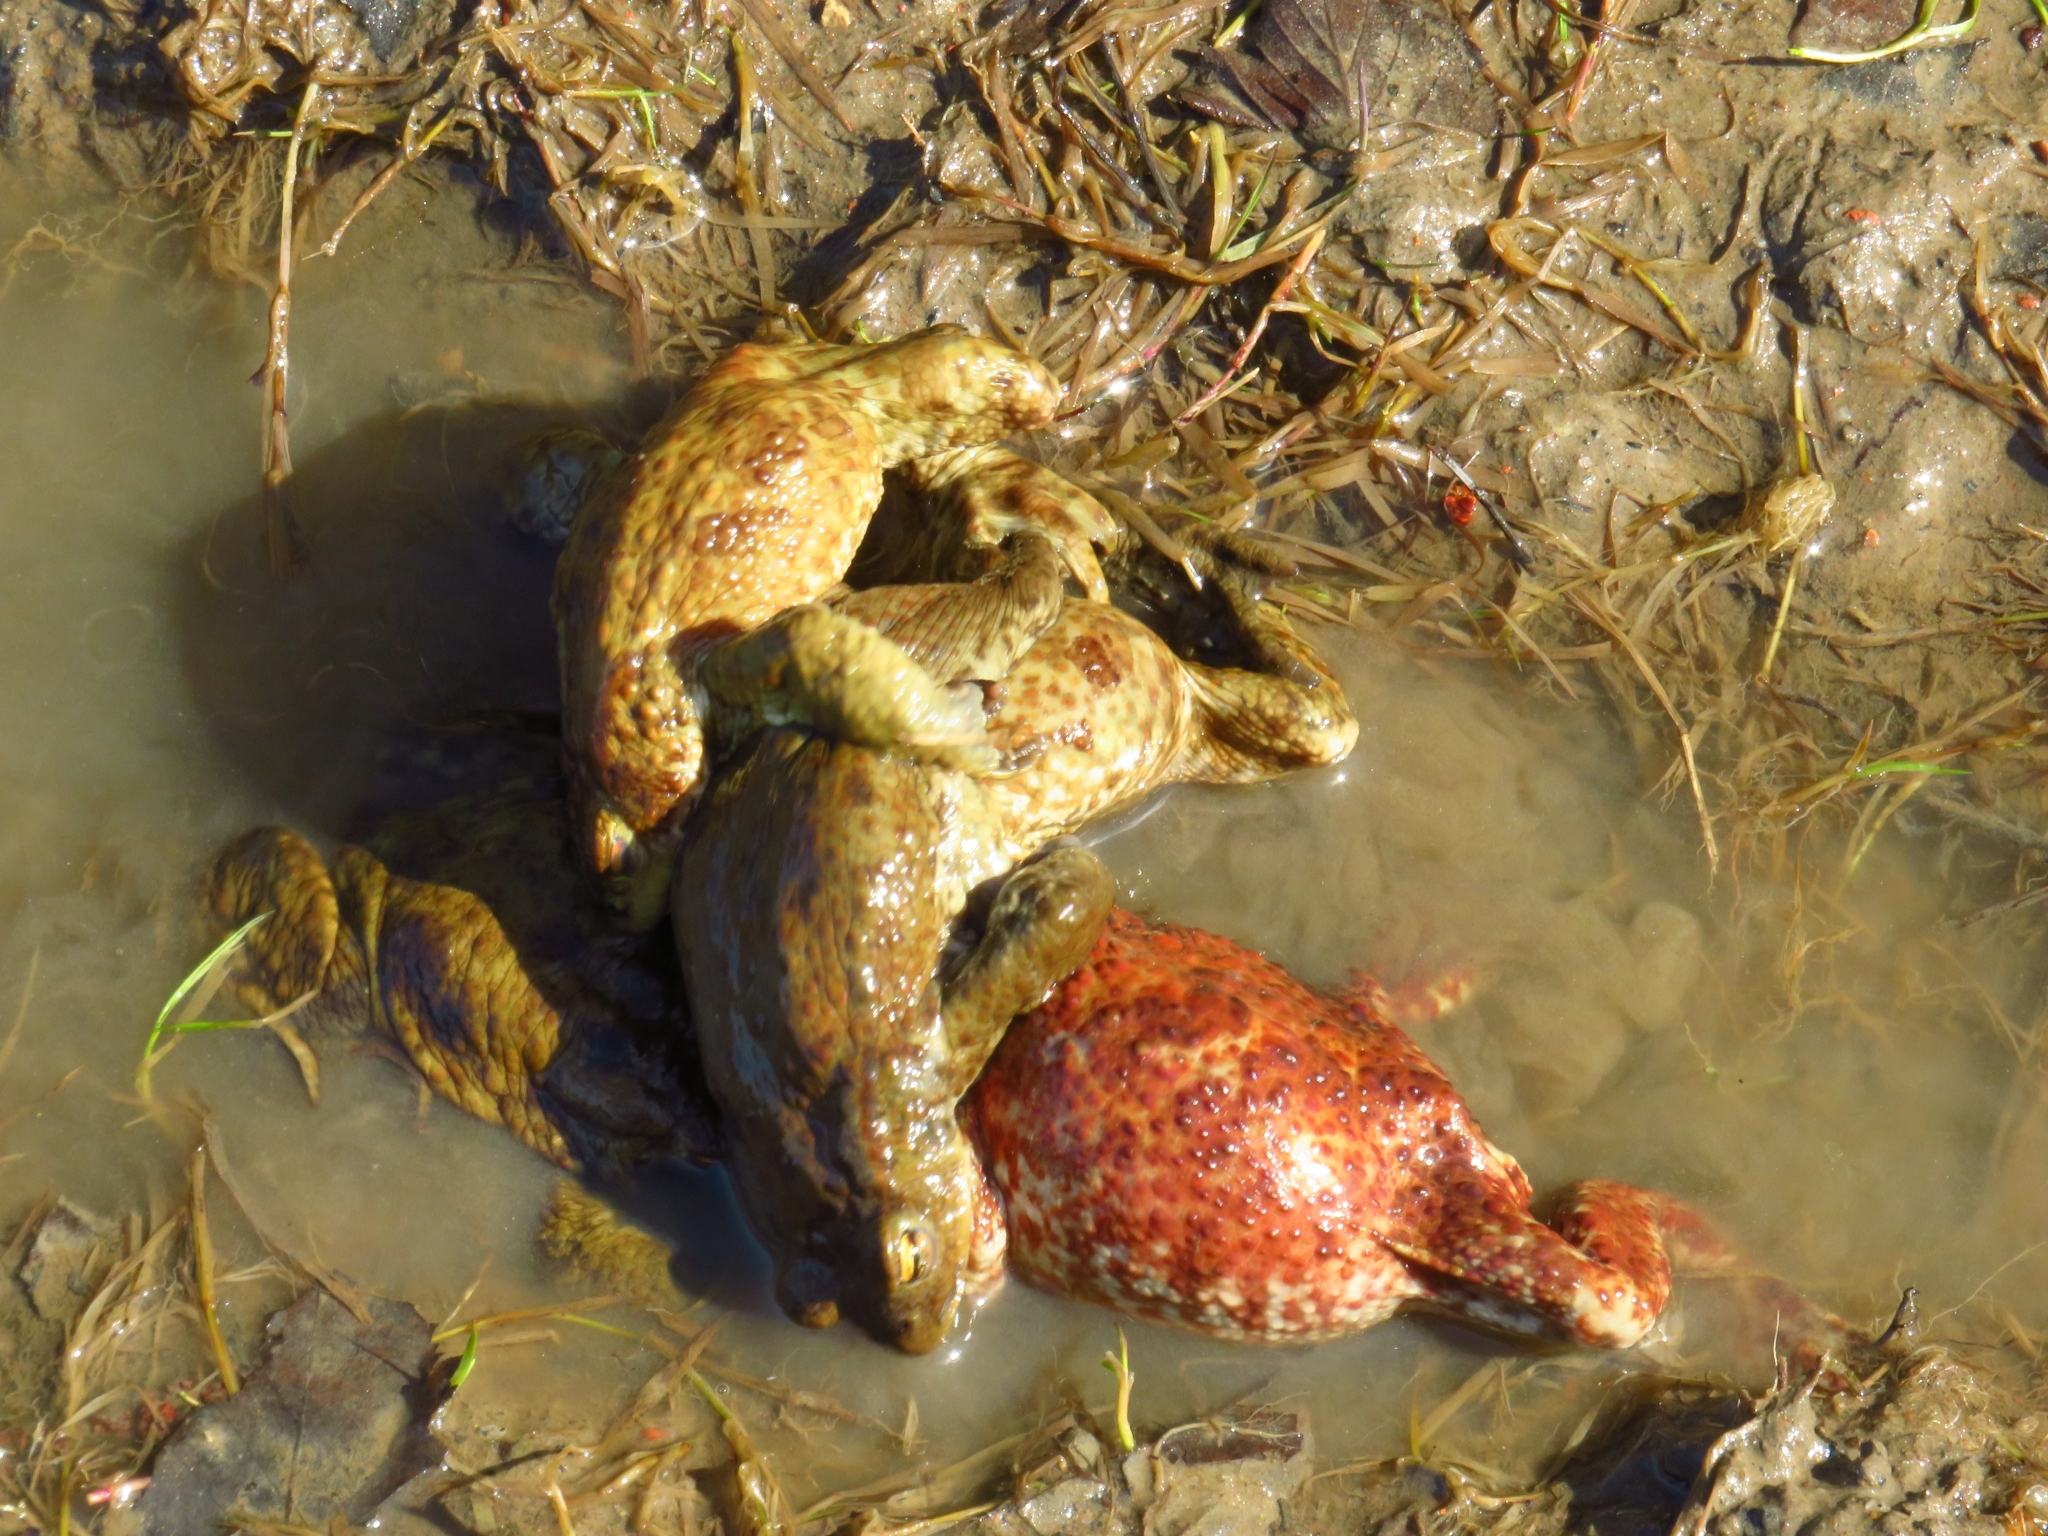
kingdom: Animalia
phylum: Chordata
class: Amphibia
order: Anura
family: Bufonidae
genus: Bufo
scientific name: Bufo bufo
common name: Common toad
